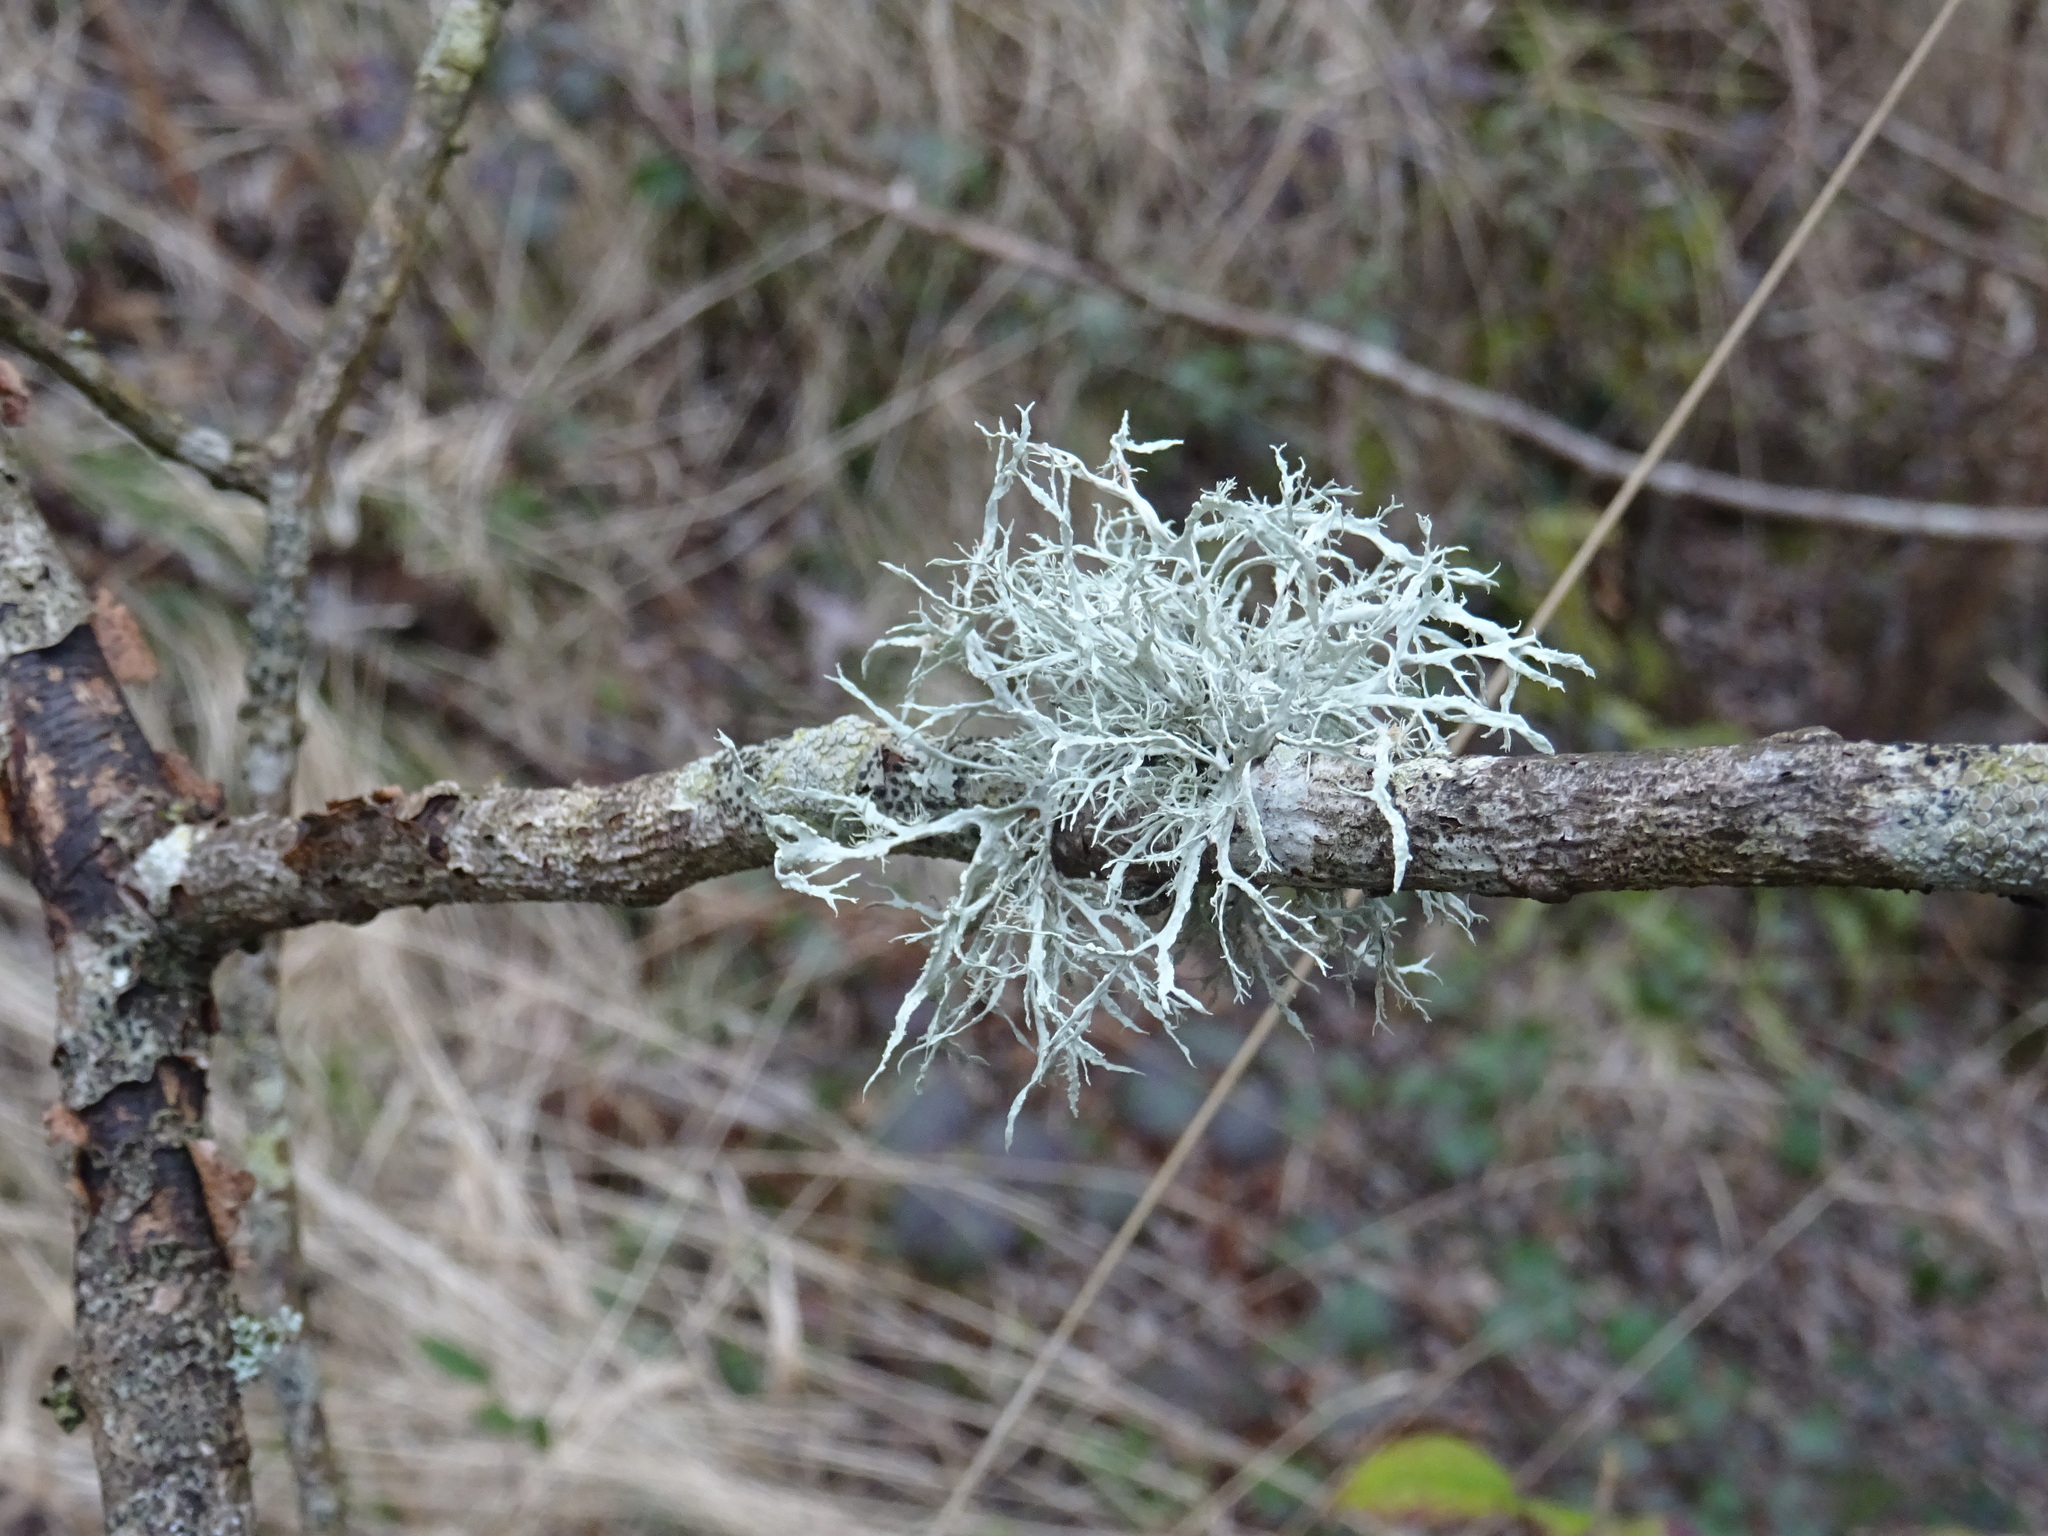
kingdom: Fungi
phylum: Ascomycota
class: Lecanoromycetes
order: Lecanorales
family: Ramalinaceae
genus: Ramalina
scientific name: Ramalina farinacea
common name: Farinose cartilage lichen
